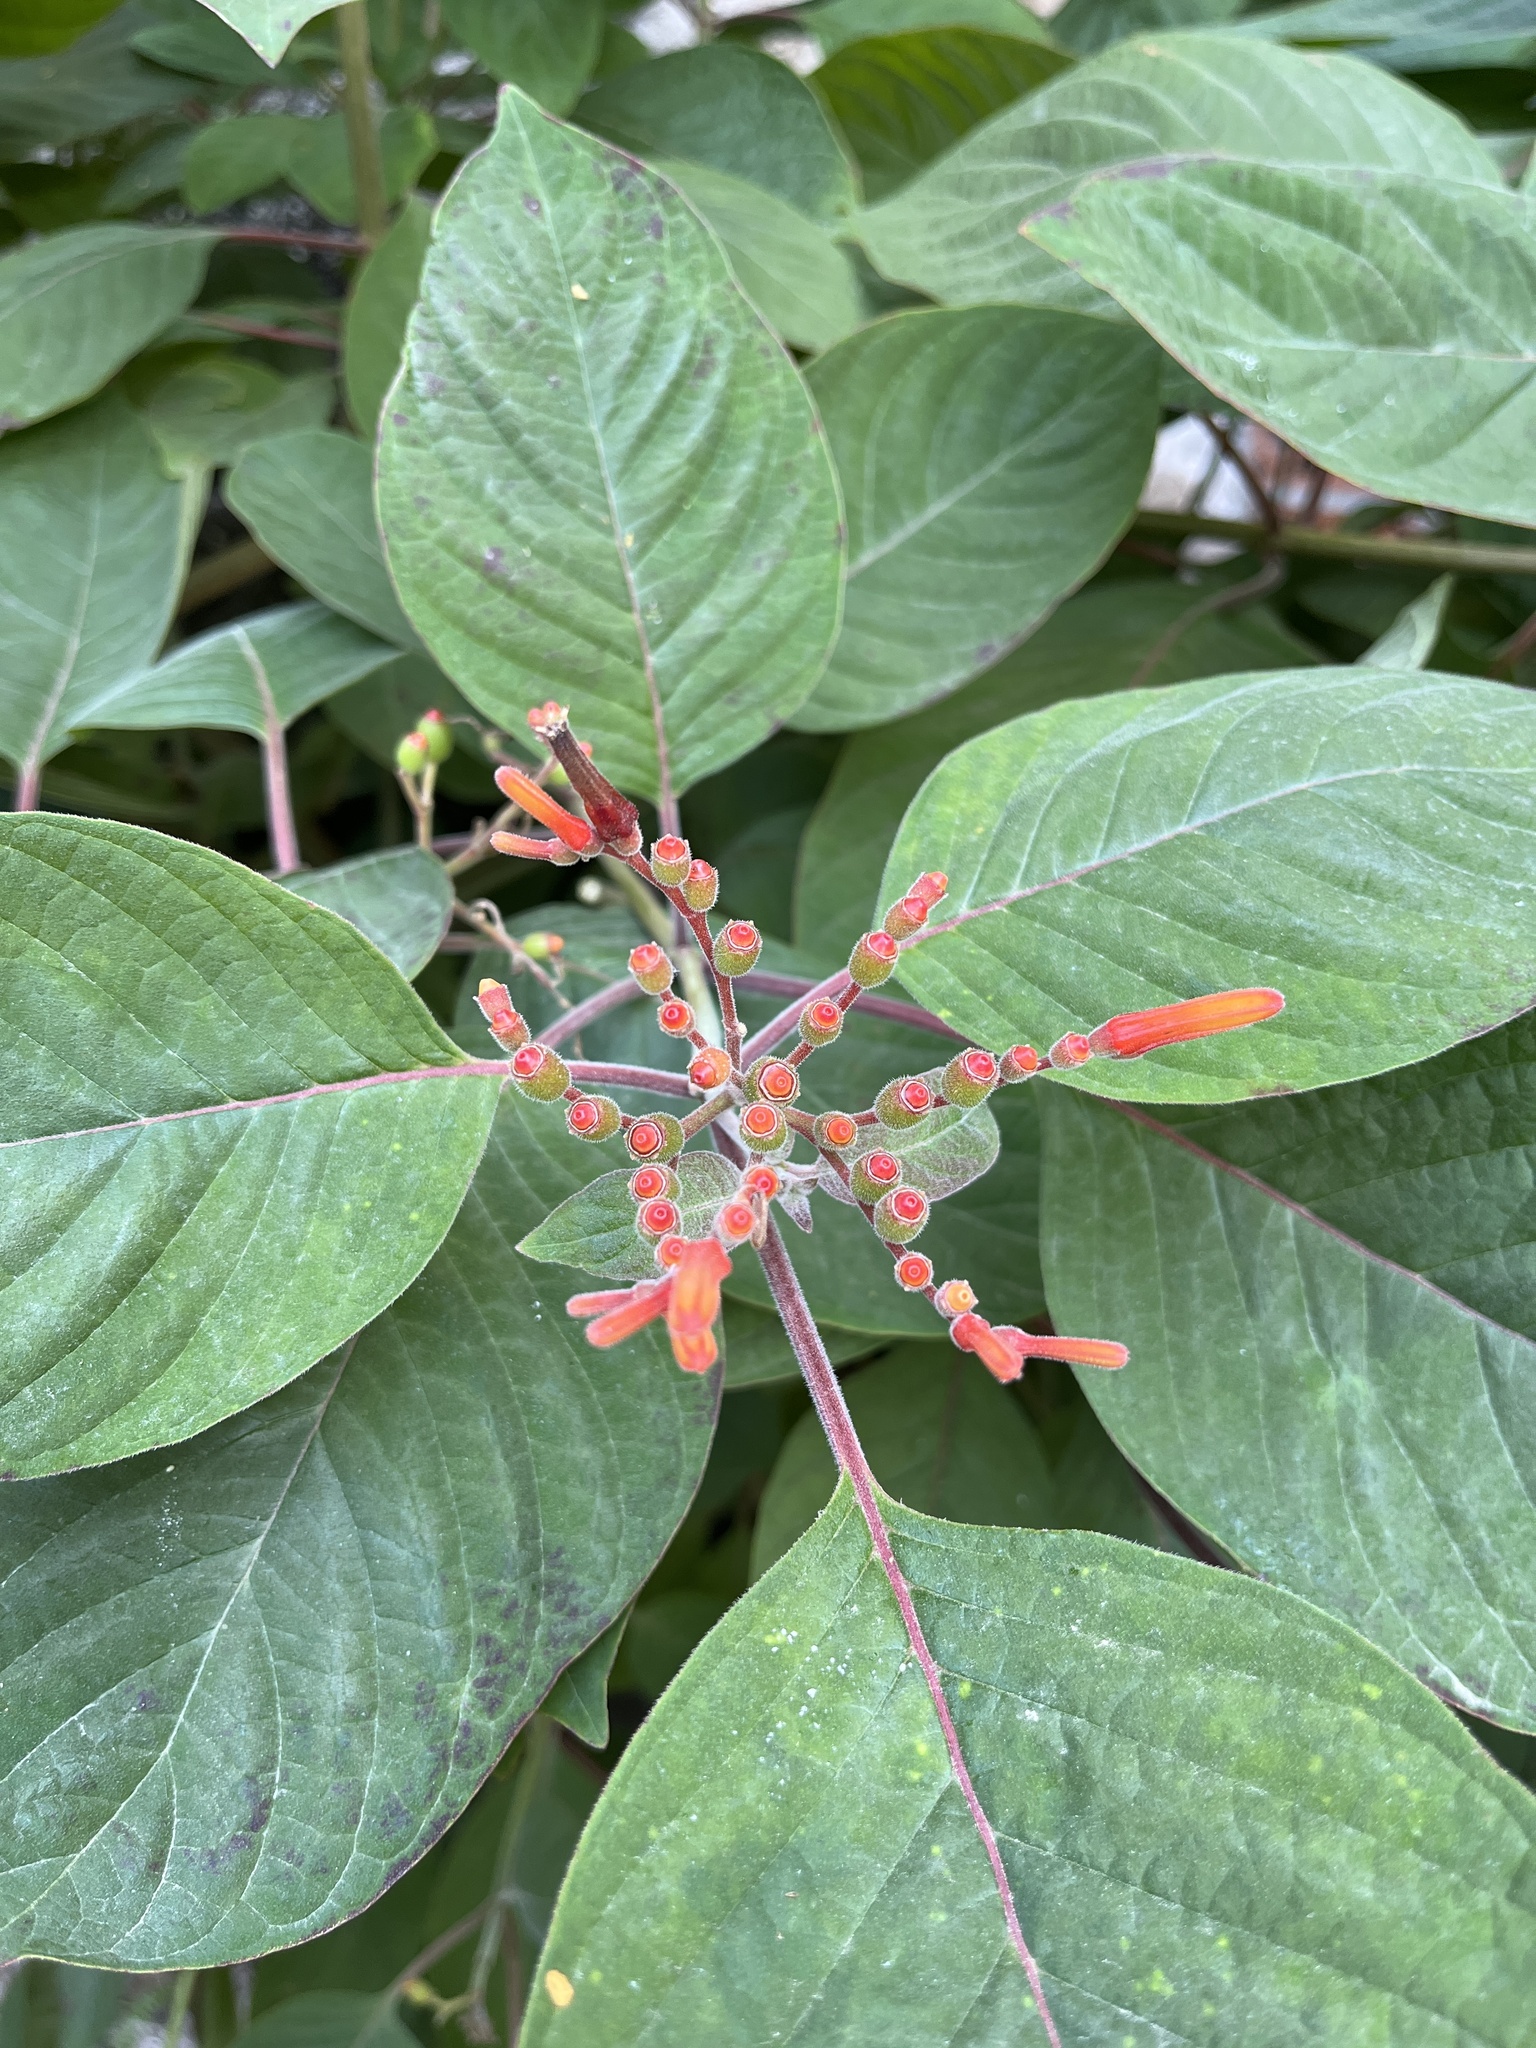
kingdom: Plantae
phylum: Tracheophyta
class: Magnoliopsida
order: Gentianales
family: Rubiaceae
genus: Hamelia
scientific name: Hamelia patens
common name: Redhead
